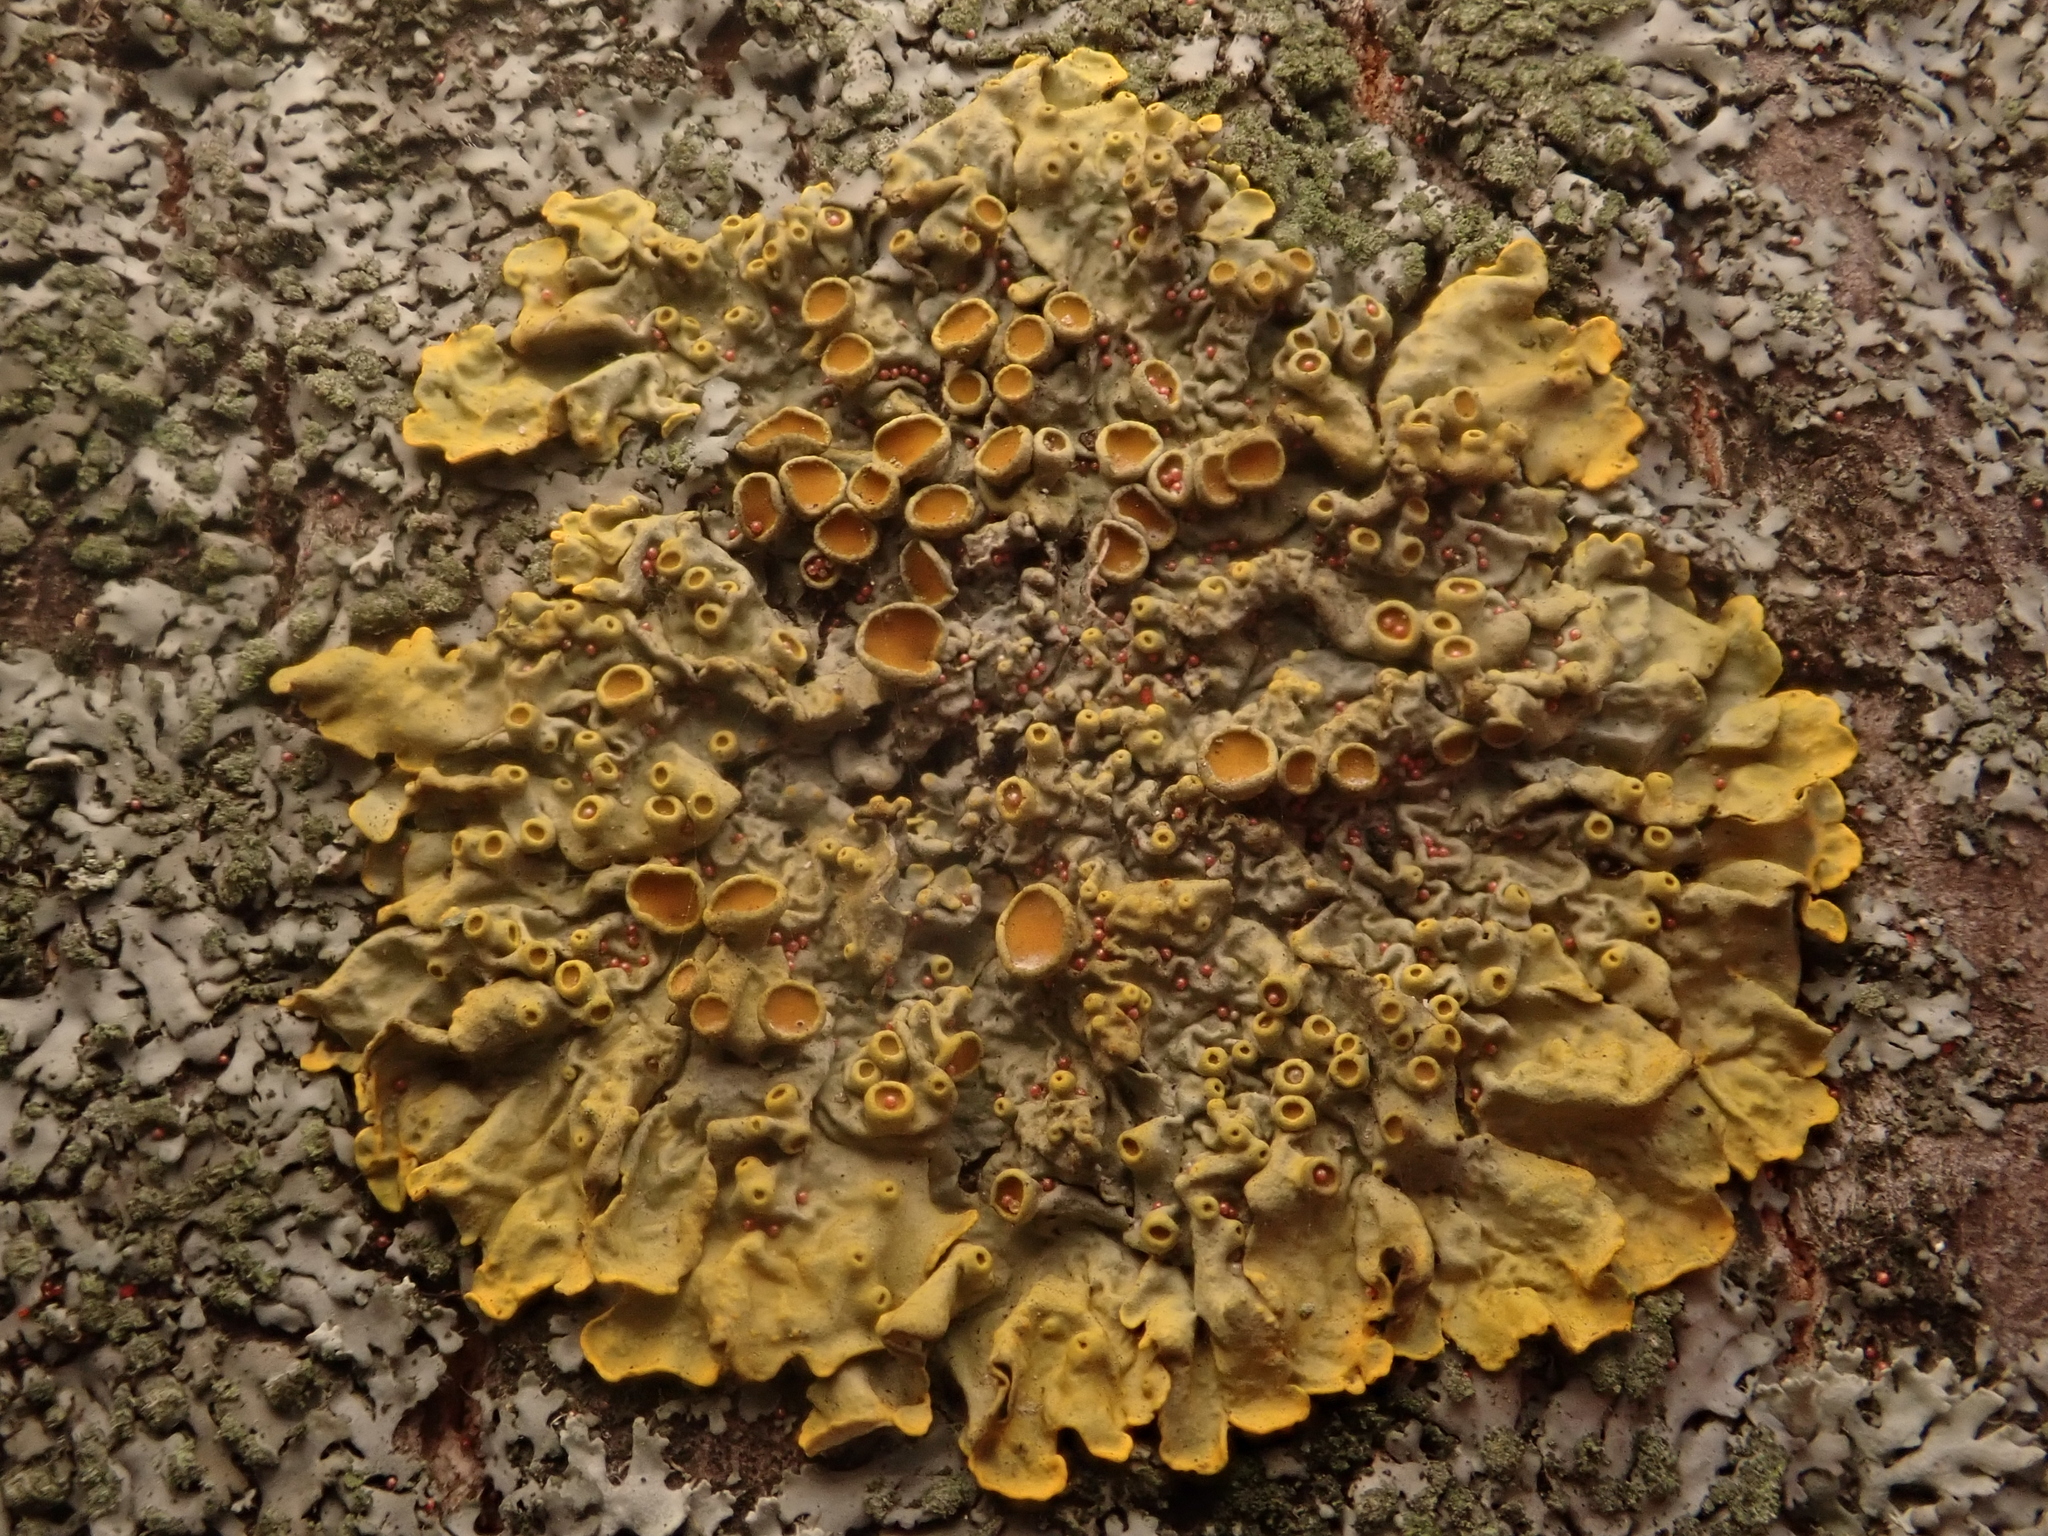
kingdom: Fungi
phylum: Ascomycota
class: Lecanoromycetes
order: Teloschistales
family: Teloschistaceae
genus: Xanthoria
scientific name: Xanthoria parietina
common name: Common orange lichen
